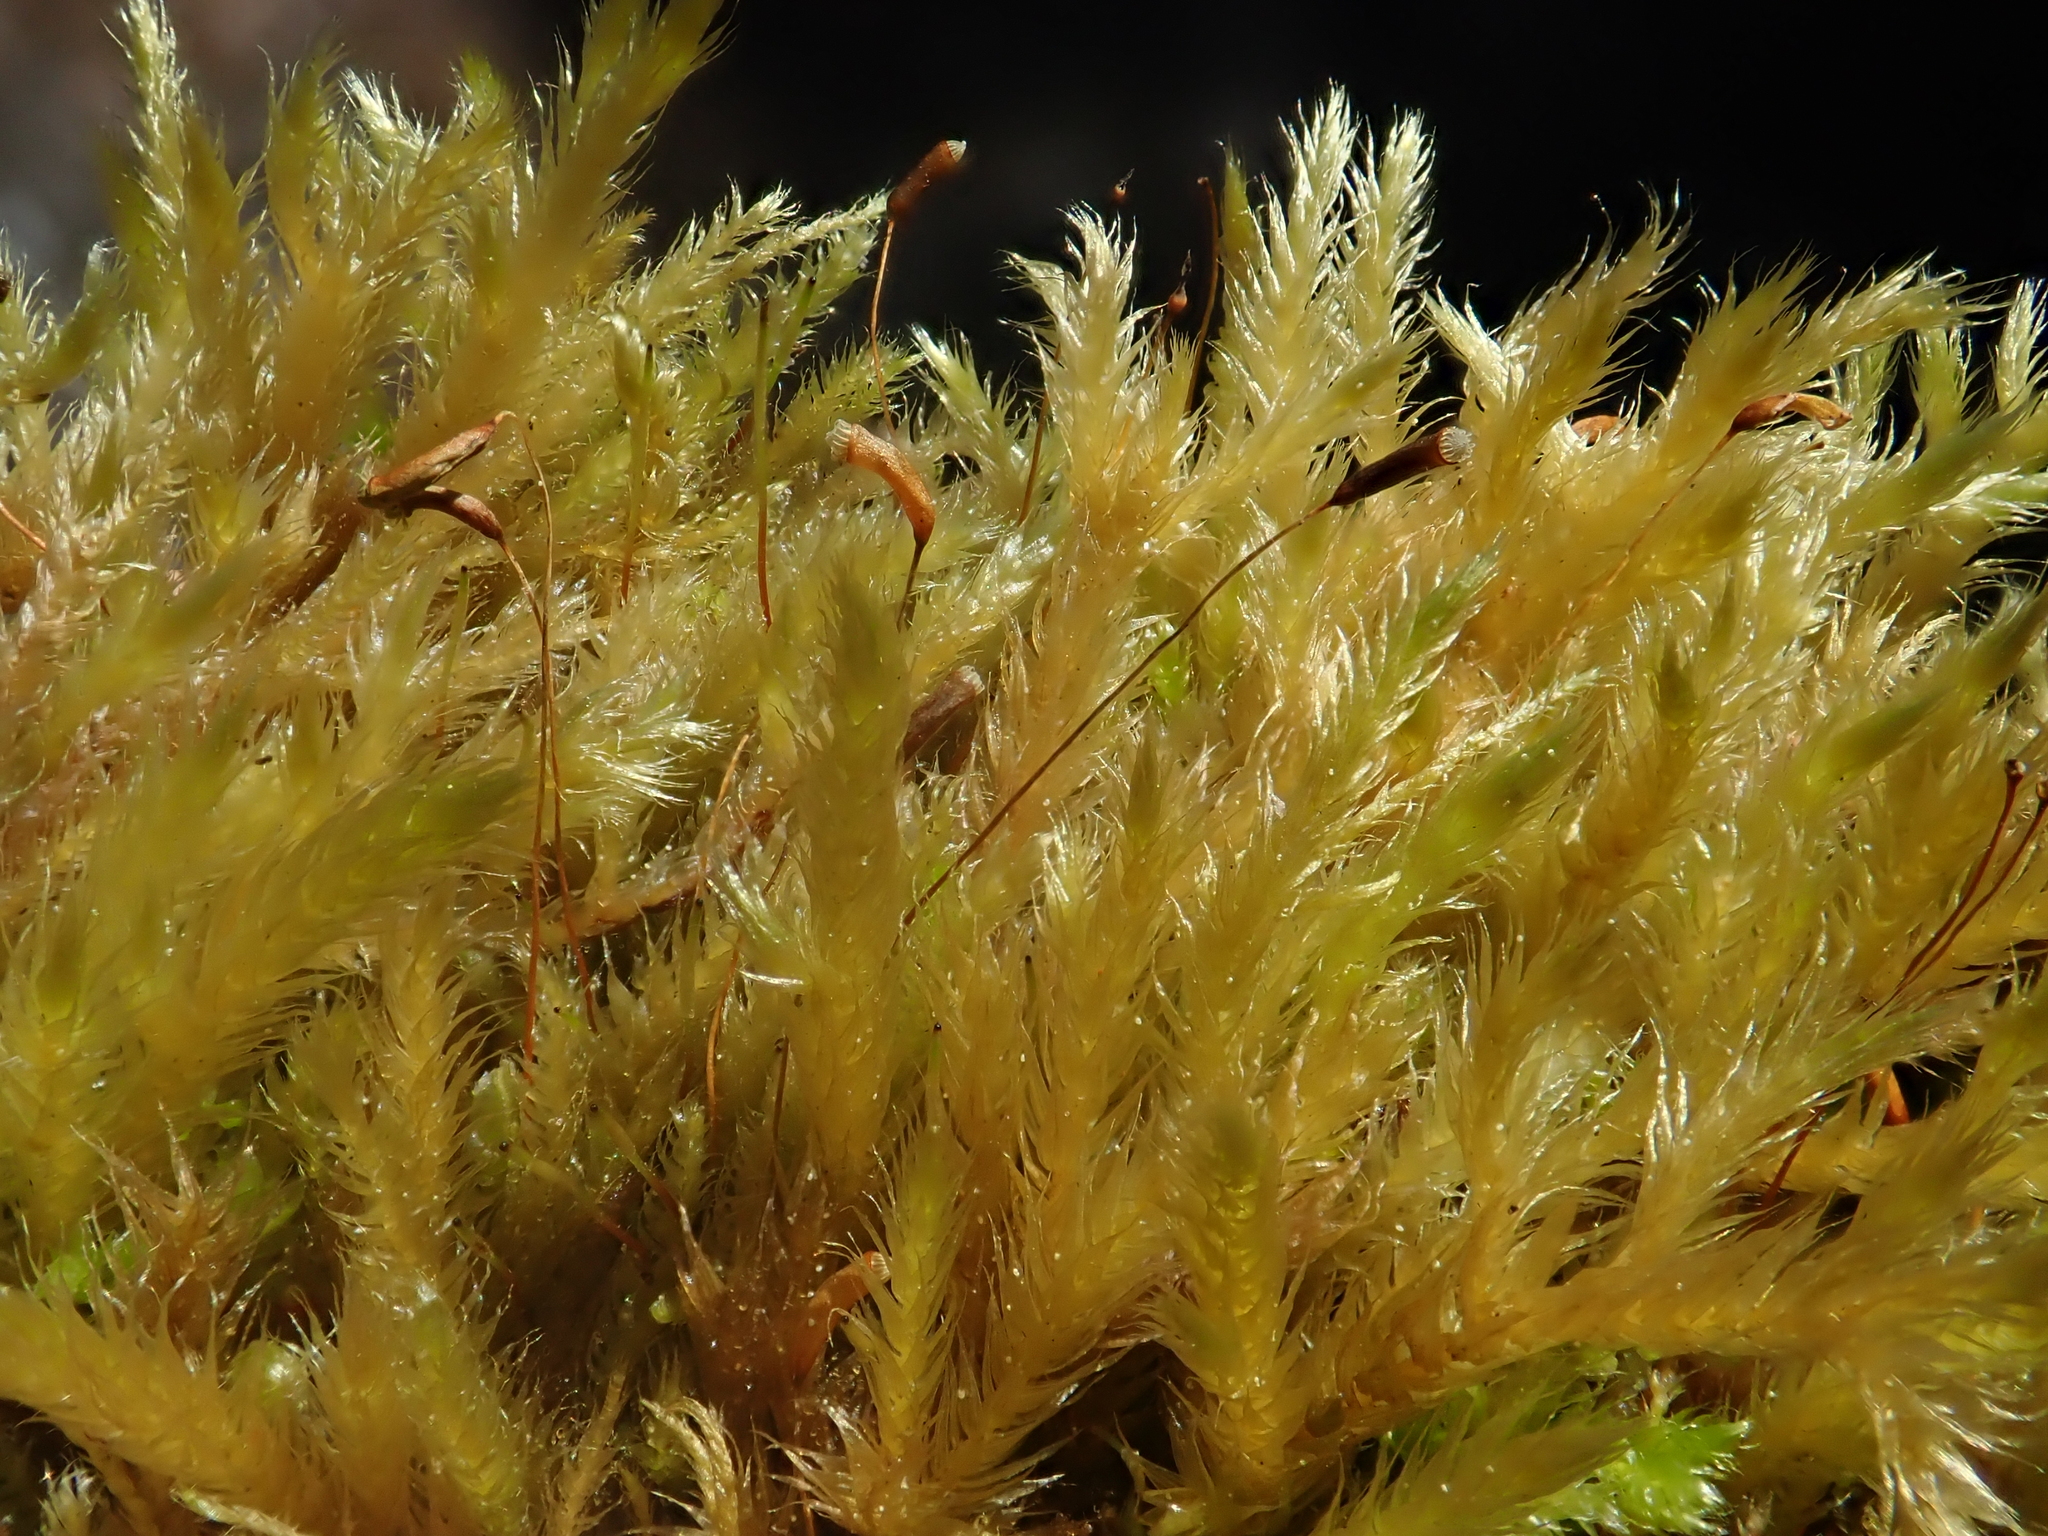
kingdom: Plantae
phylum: Bryophyta
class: Bryopsida
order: Hypnales
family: Brachytheciaceae
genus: Brachythecium
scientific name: Brachythecium salebrosum
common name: Smooth-stalk feather-moss
